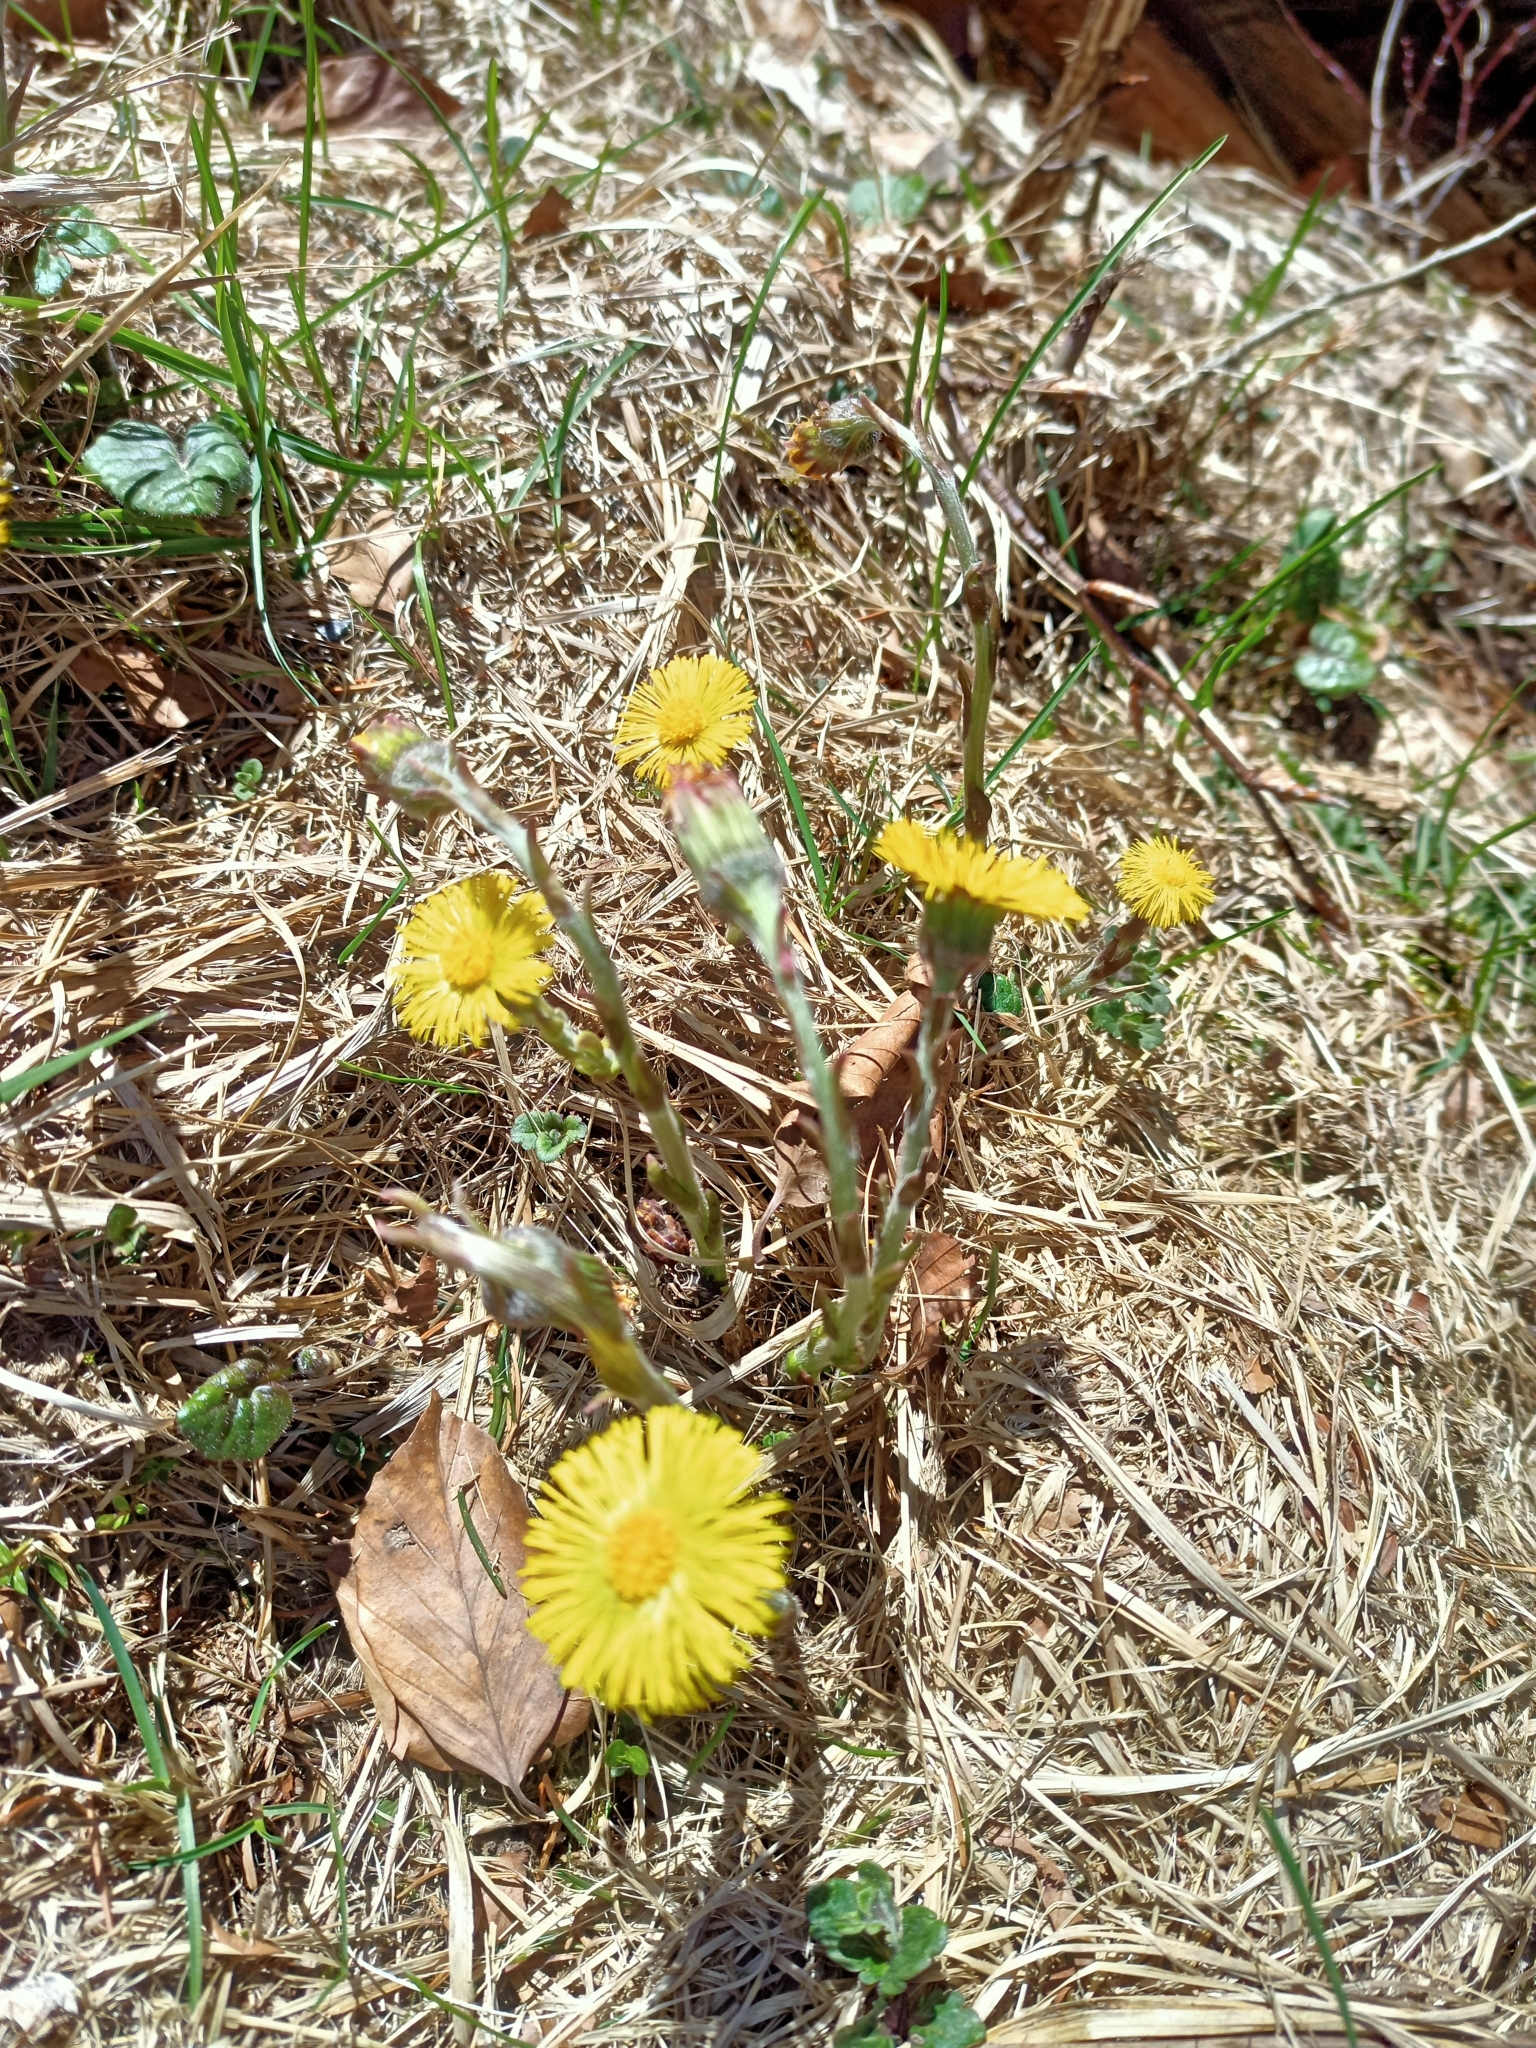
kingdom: Plantae
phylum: Tracheophyta
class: Magnoliopsida
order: Asterales
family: Asteraceae
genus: Tussilago
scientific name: Tussilago farfara
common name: Coltsfoot
